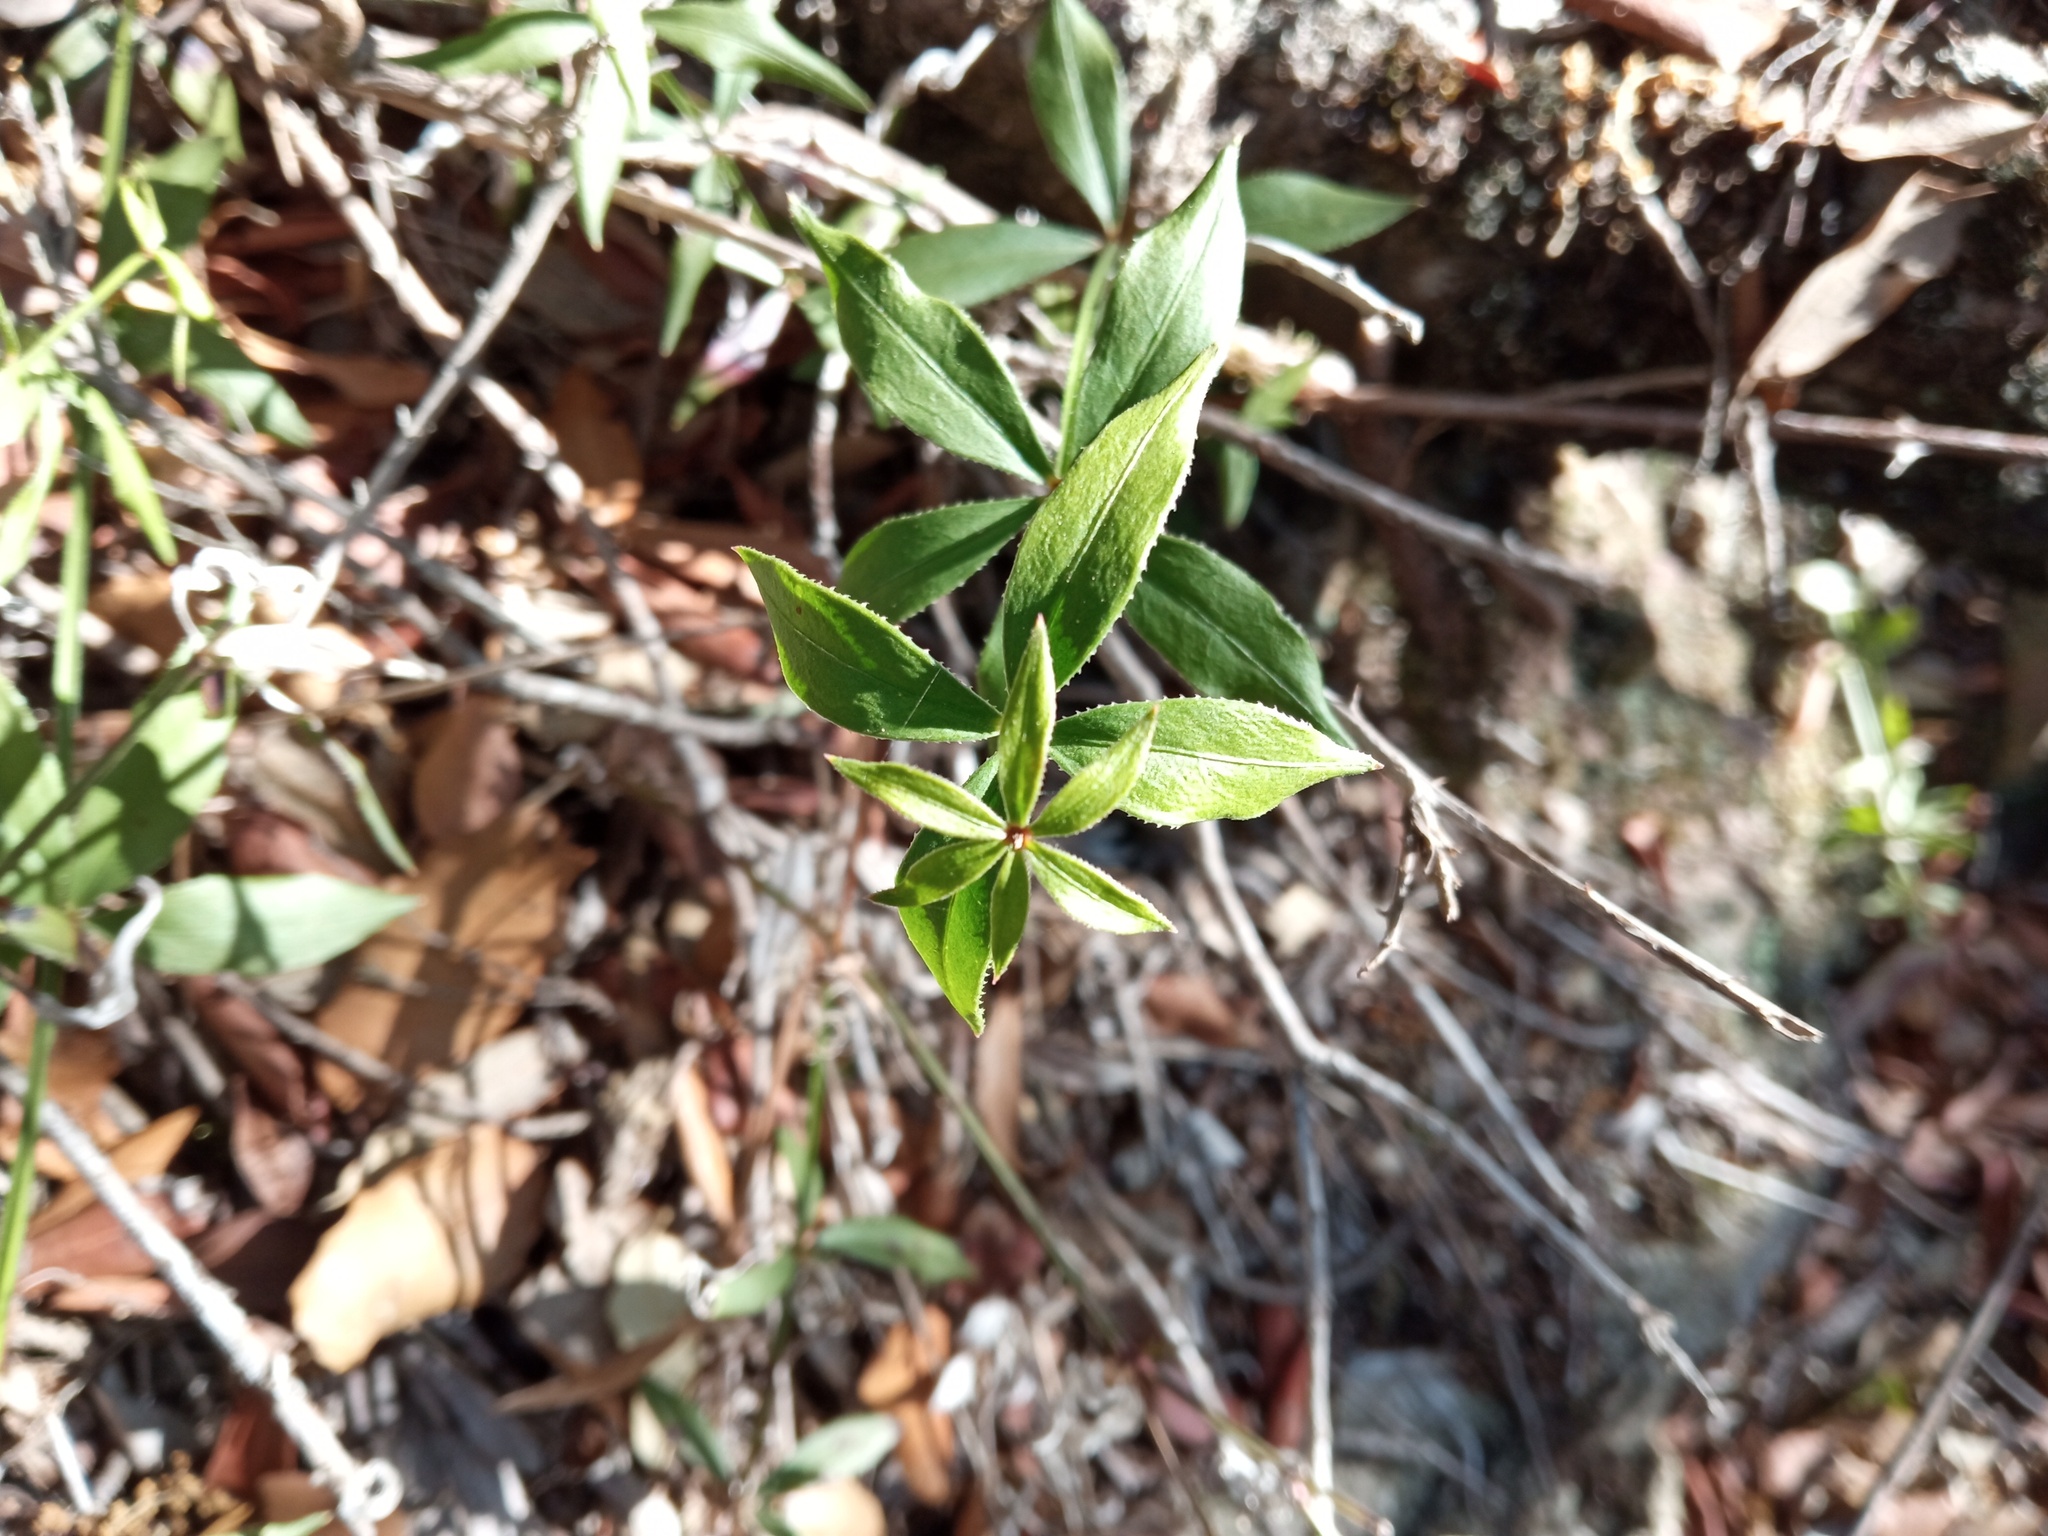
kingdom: Plantae
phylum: Tracheophyta
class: Magnoliopsida
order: Gentianales
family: Rubiaceae
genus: Rubia
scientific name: Rubia peregrina
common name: Wild madder
